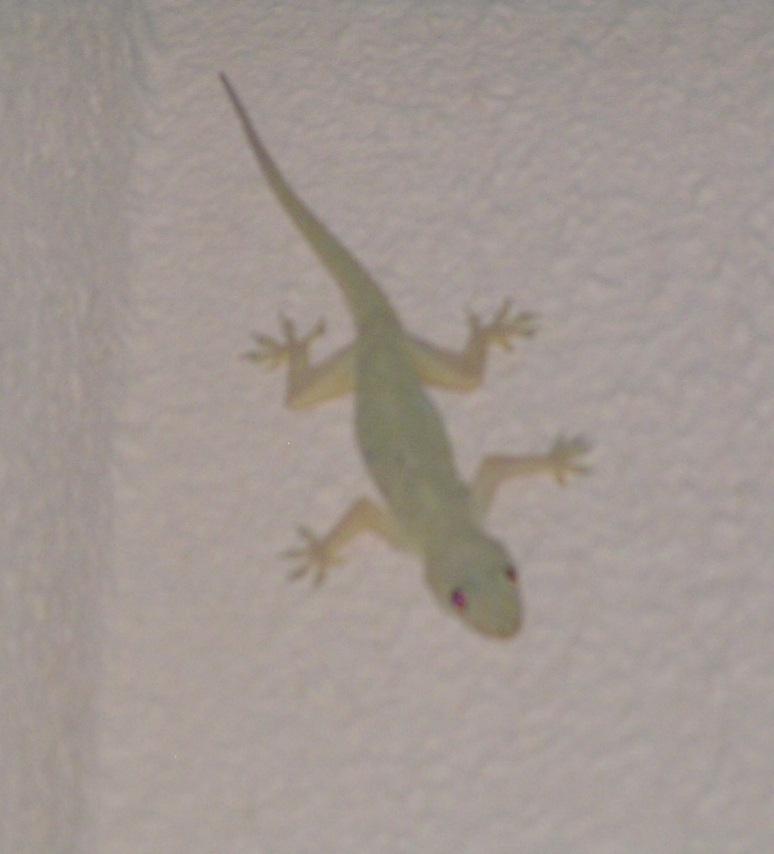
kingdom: Animalia
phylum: Chordata
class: Squamata
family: Gekkonidae
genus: Hemidactylus
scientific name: Hemidactylus flaviviridis
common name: Northern house gecko
